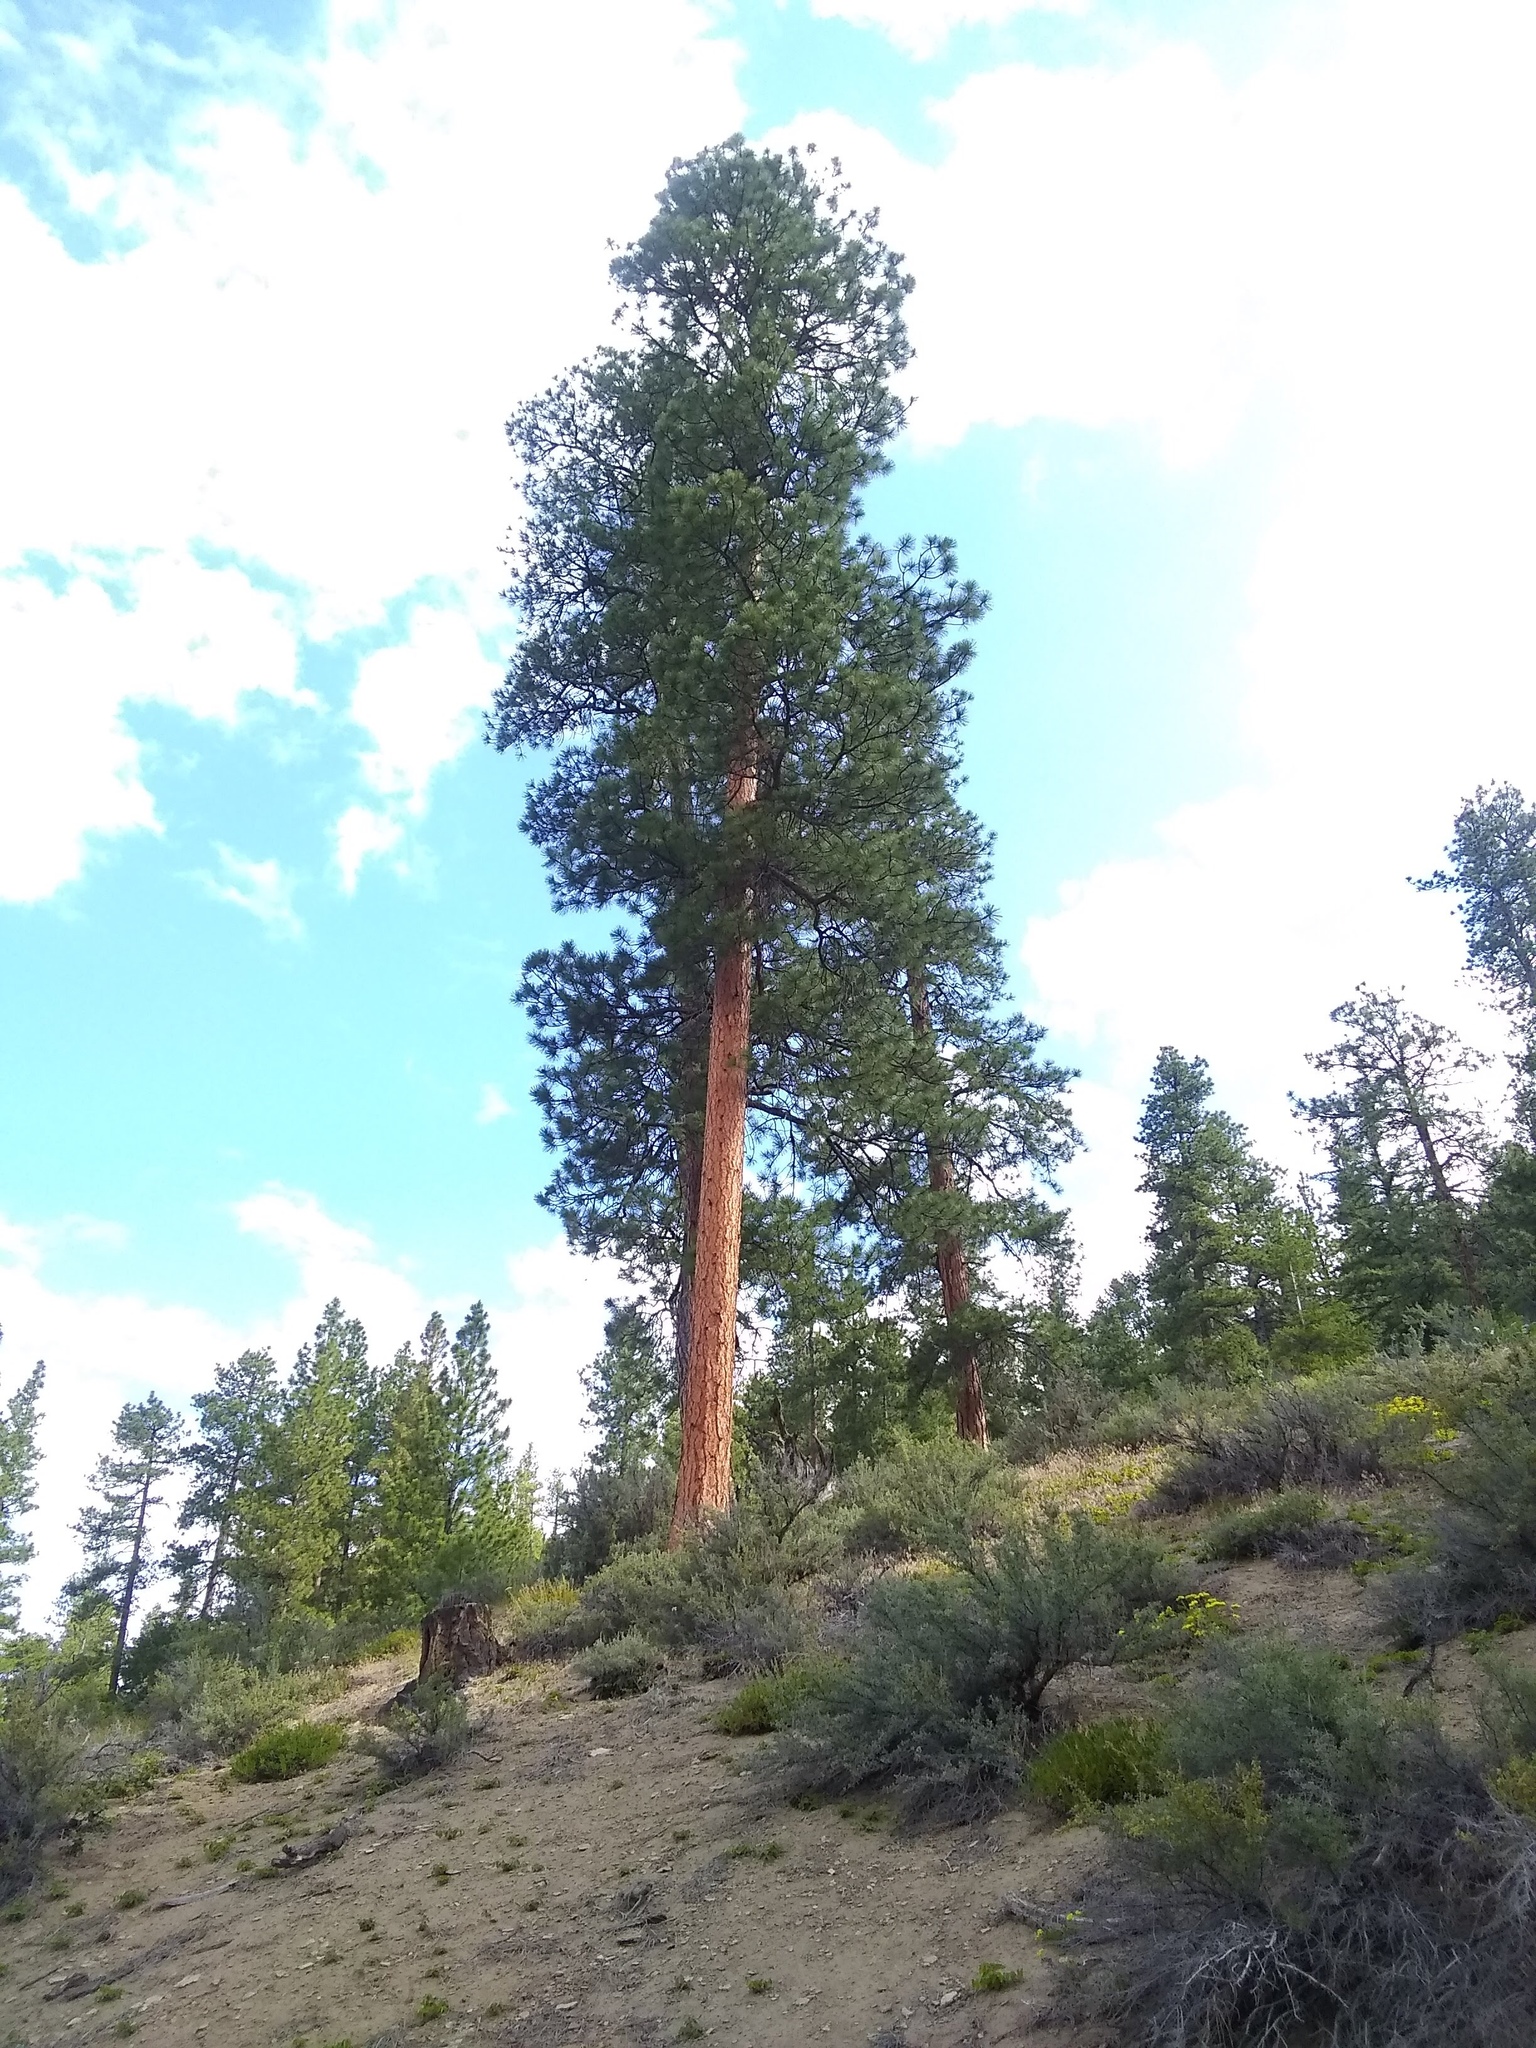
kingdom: Plantae
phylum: Tracheophyta
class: Pinopsida
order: Pinales
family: Pinaceae
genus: Pinus
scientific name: Pinus ponderosa
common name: Western yellow-pine
